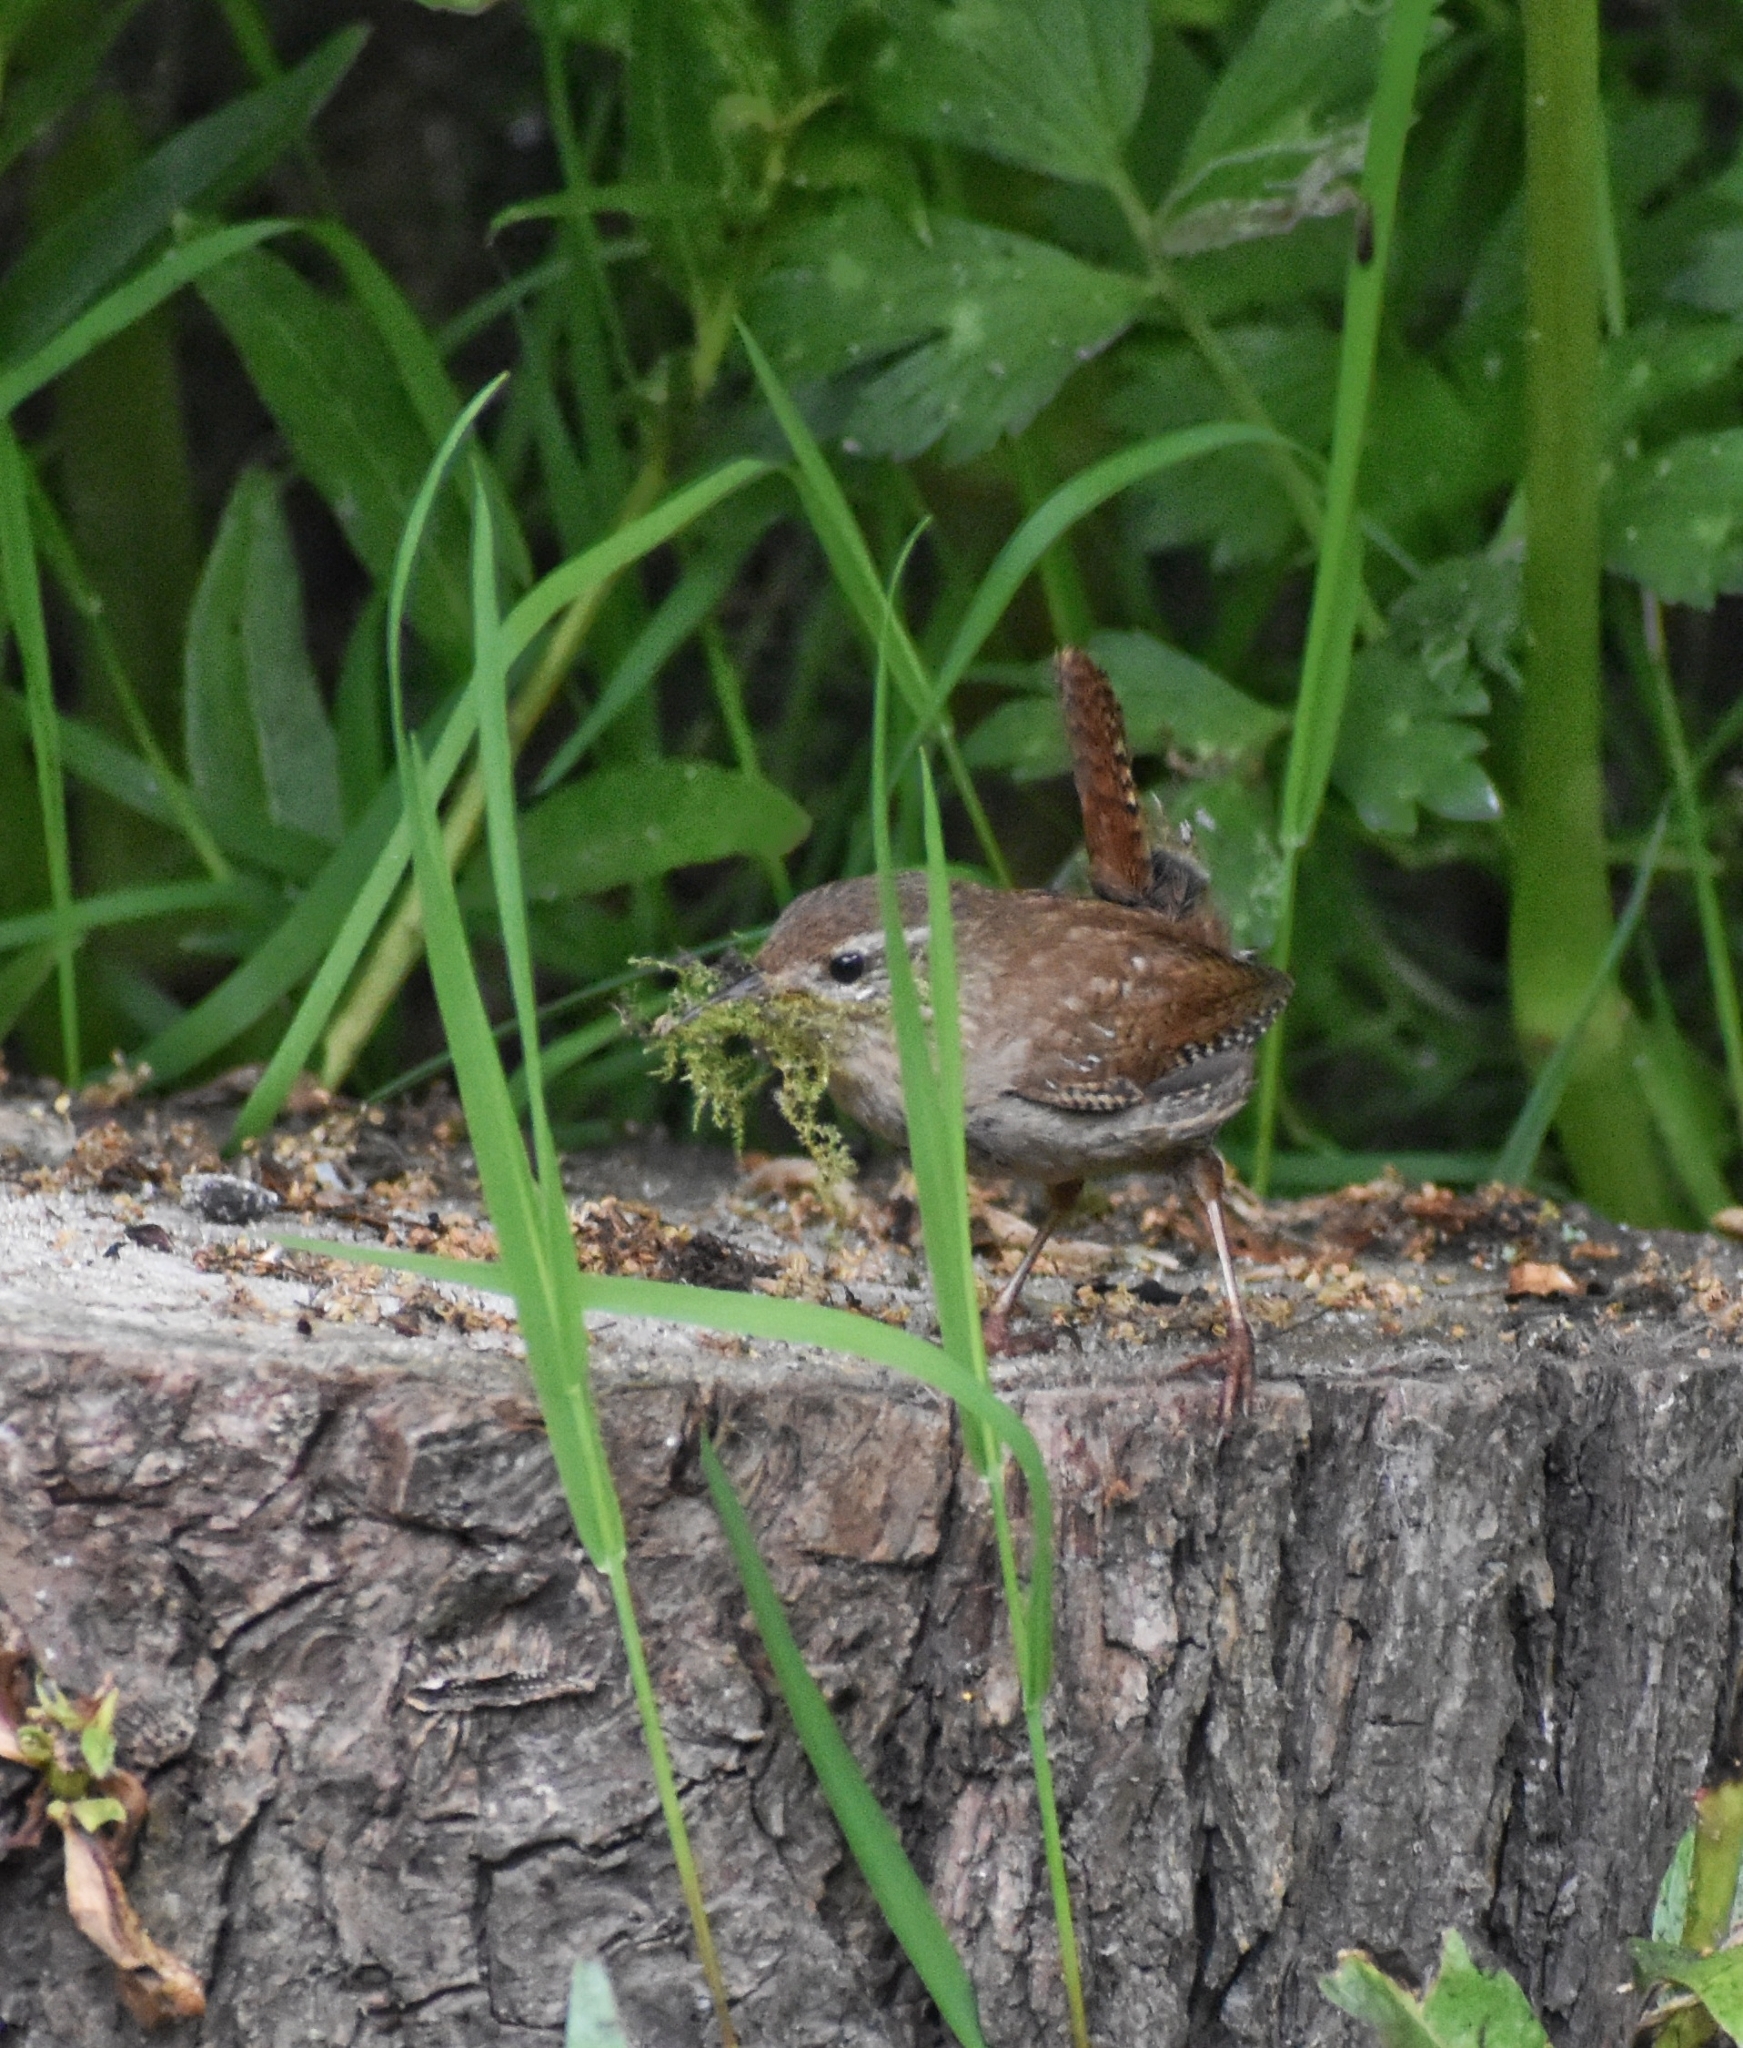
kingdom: Animalia
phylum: Chordata
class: Aves
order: Passeriformes
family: Troglodytidae
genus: Troglodytes
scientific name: Troglodytes troglodytes
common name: Eurasian wren
